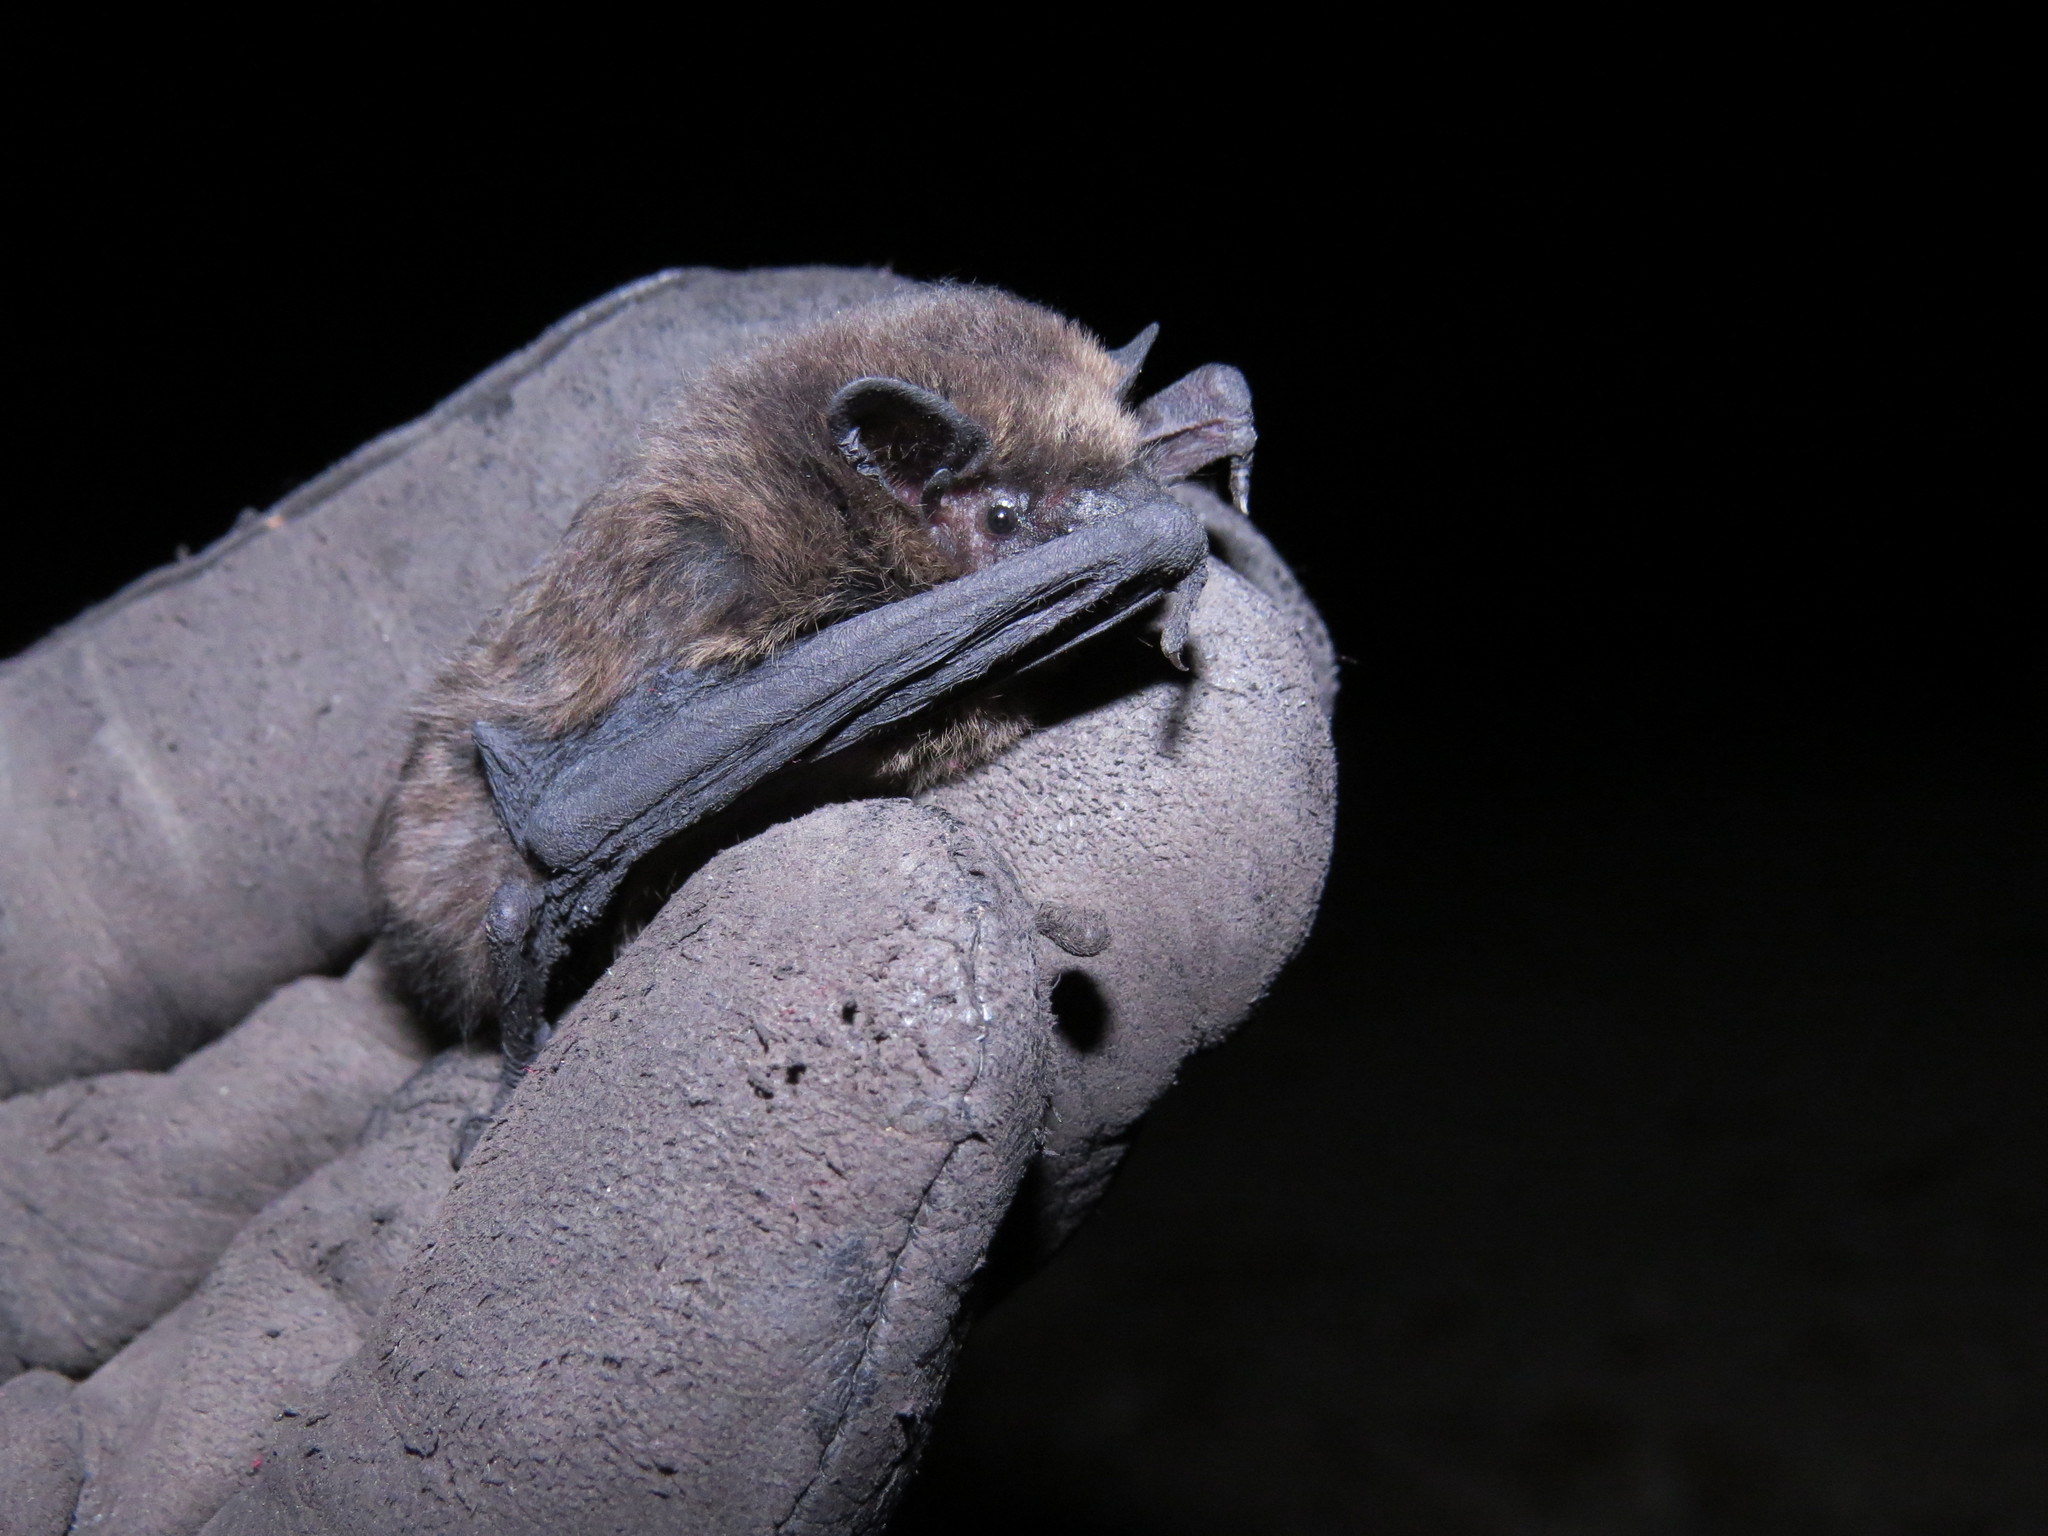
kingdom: Animalia
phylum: Chordata
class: Mammalia
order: Chiroptera
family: Vespertilionidae
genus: Pipistrellus
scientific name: Pipistrellus pipistrellus
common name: Common pipistrelle
